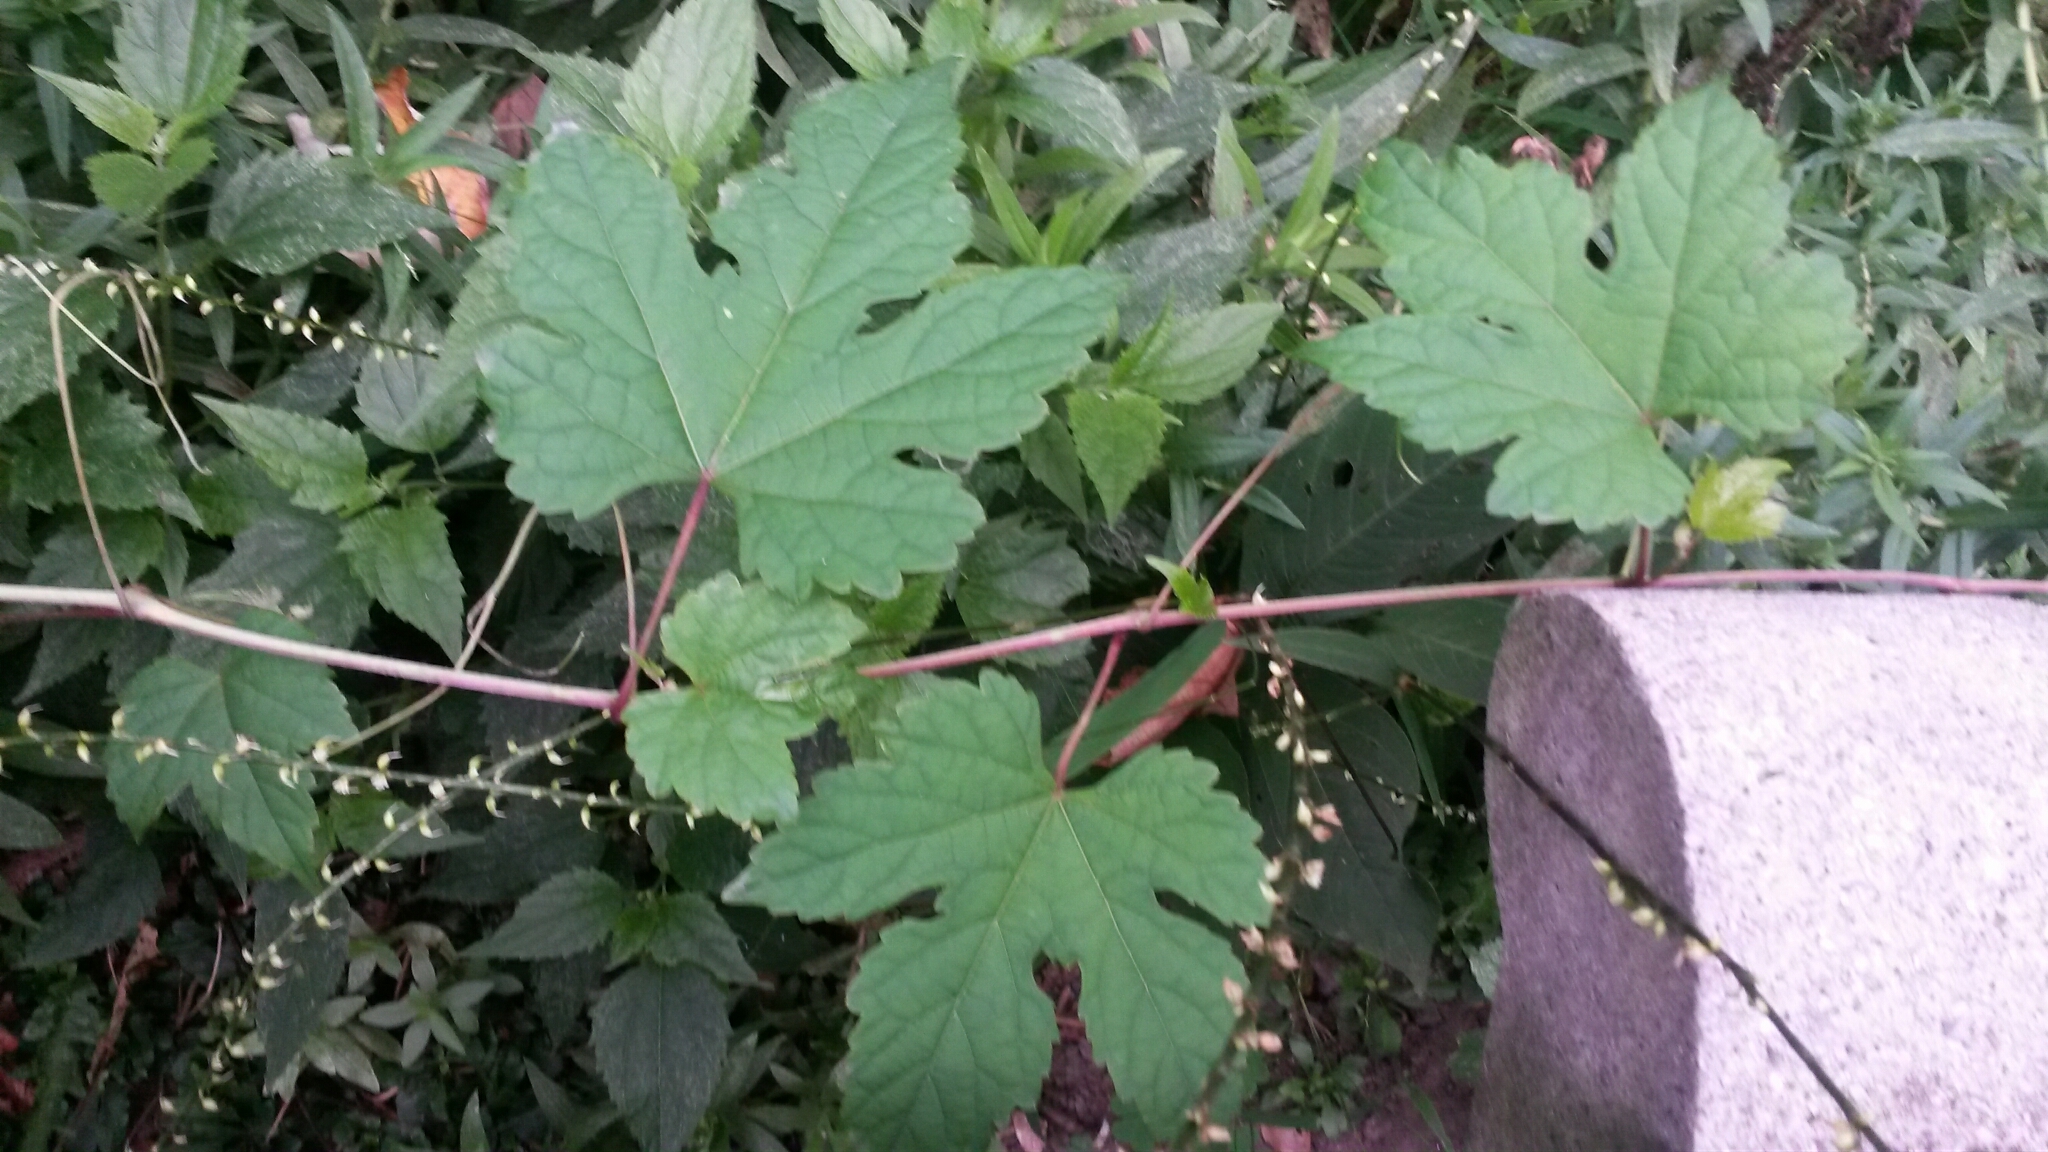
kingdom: Plantae
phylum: Tracheophyta
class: Magnoliopsida
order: Vitales
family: Vitaceae
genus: Ampelopsis
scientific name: Ampelopsis glandulosa
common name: Amur peppervine
